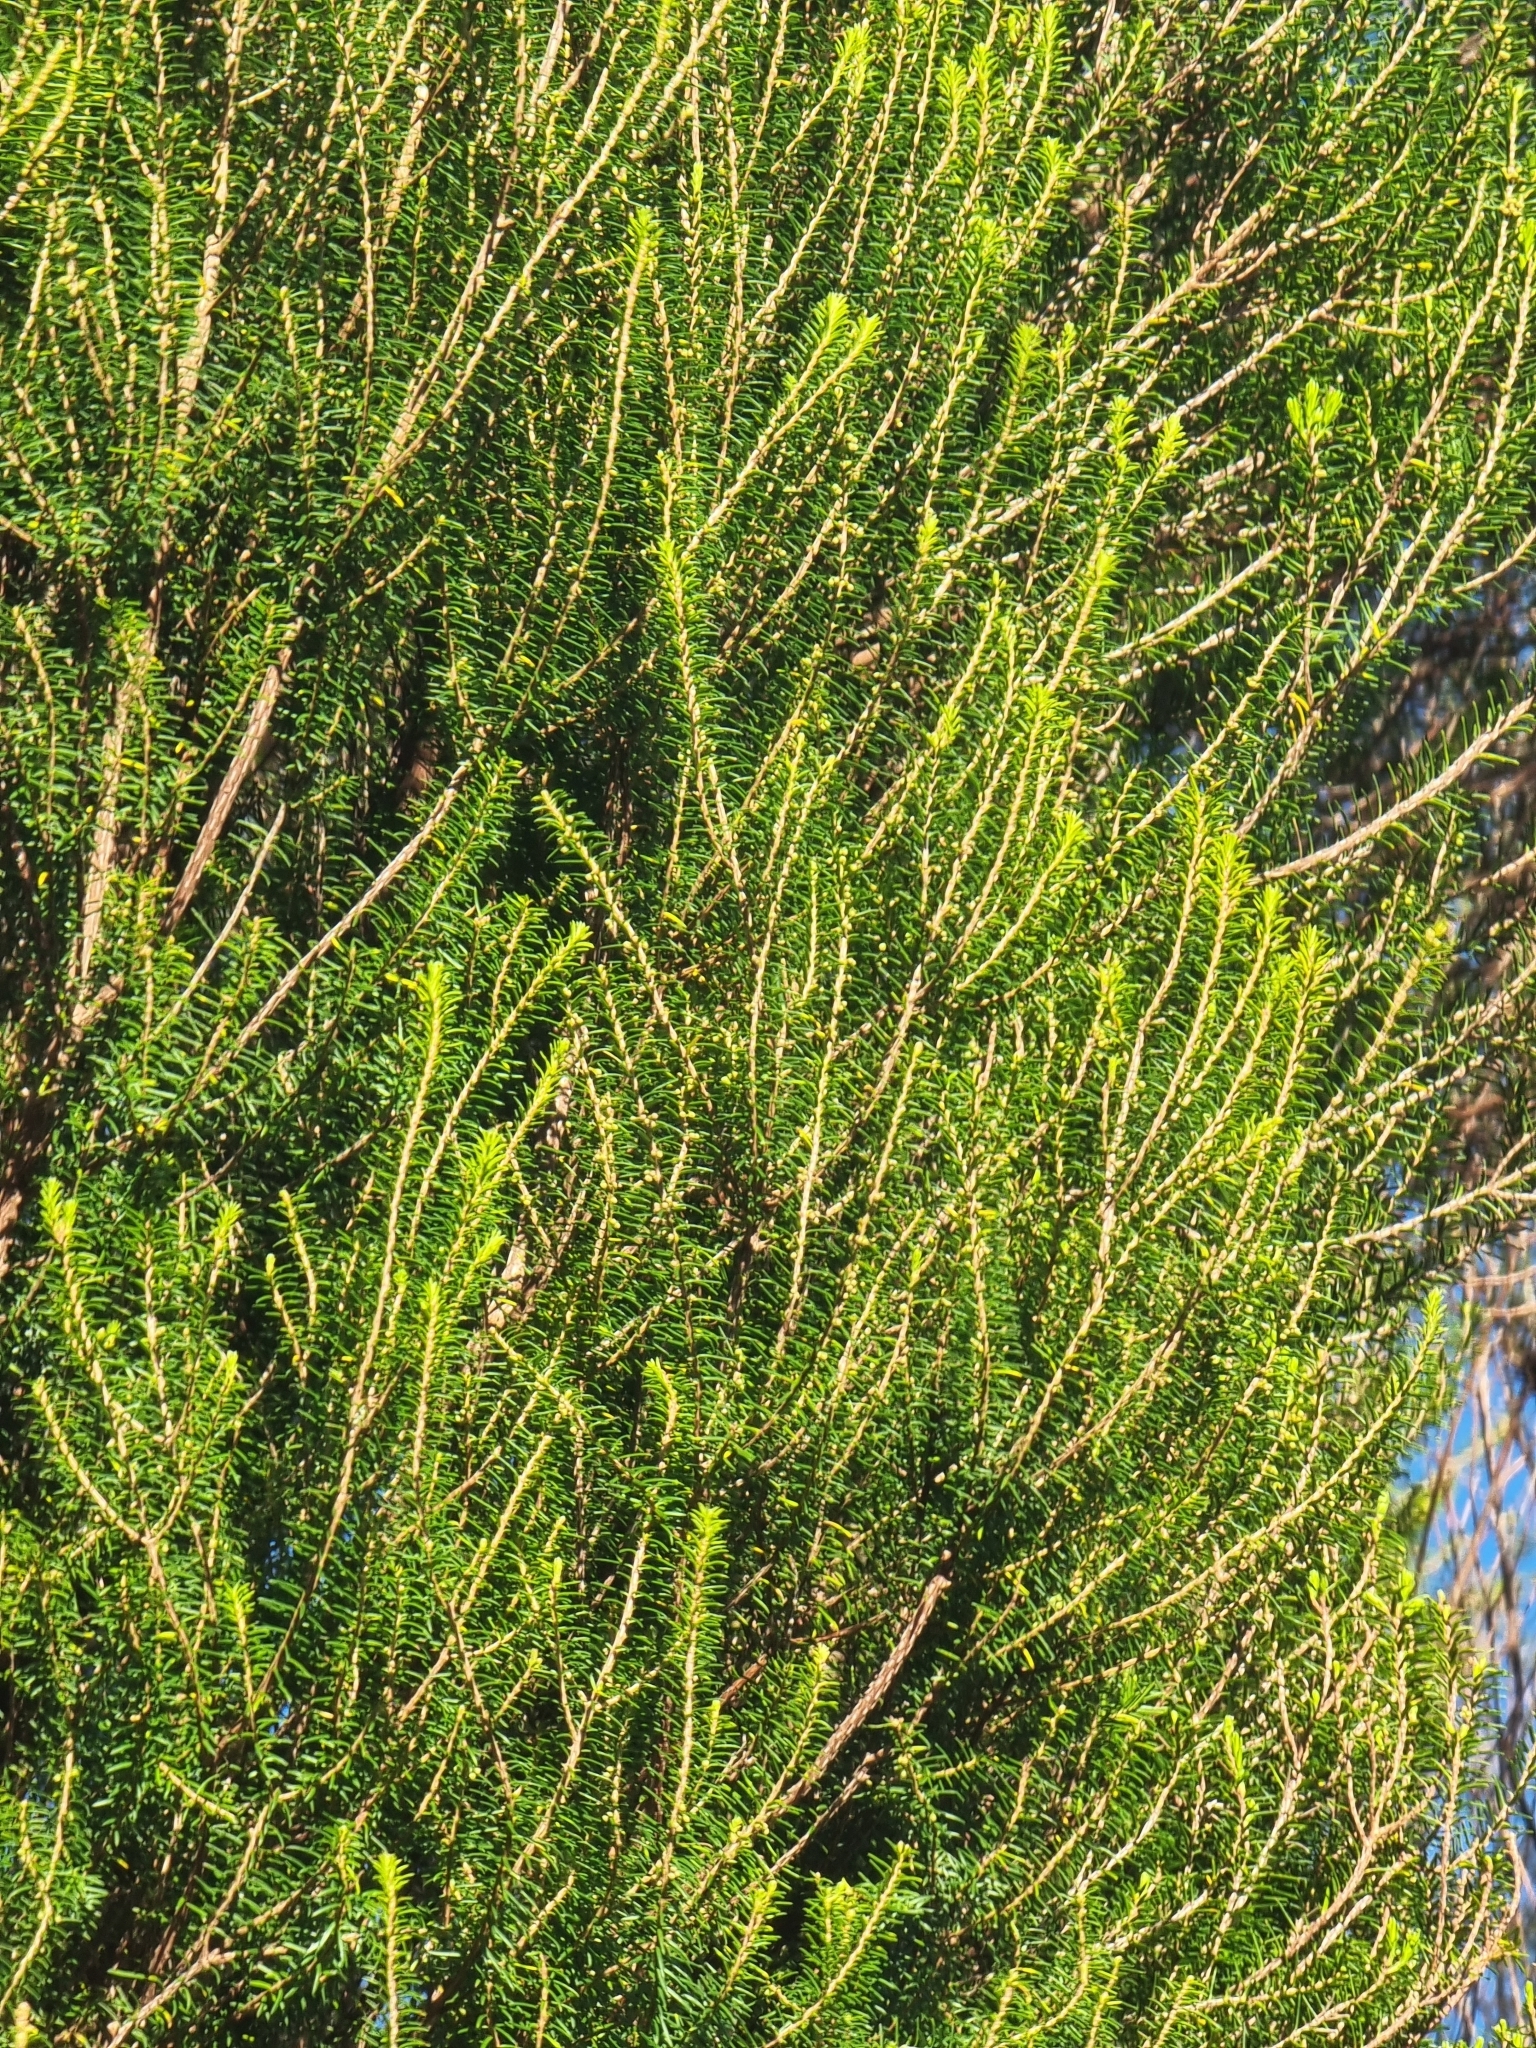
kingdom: Plantae
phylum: Tracheophyta
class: Magnoliopsida
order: Ericales
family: Ericaceae
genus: Erica
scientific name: Erica platycodon
